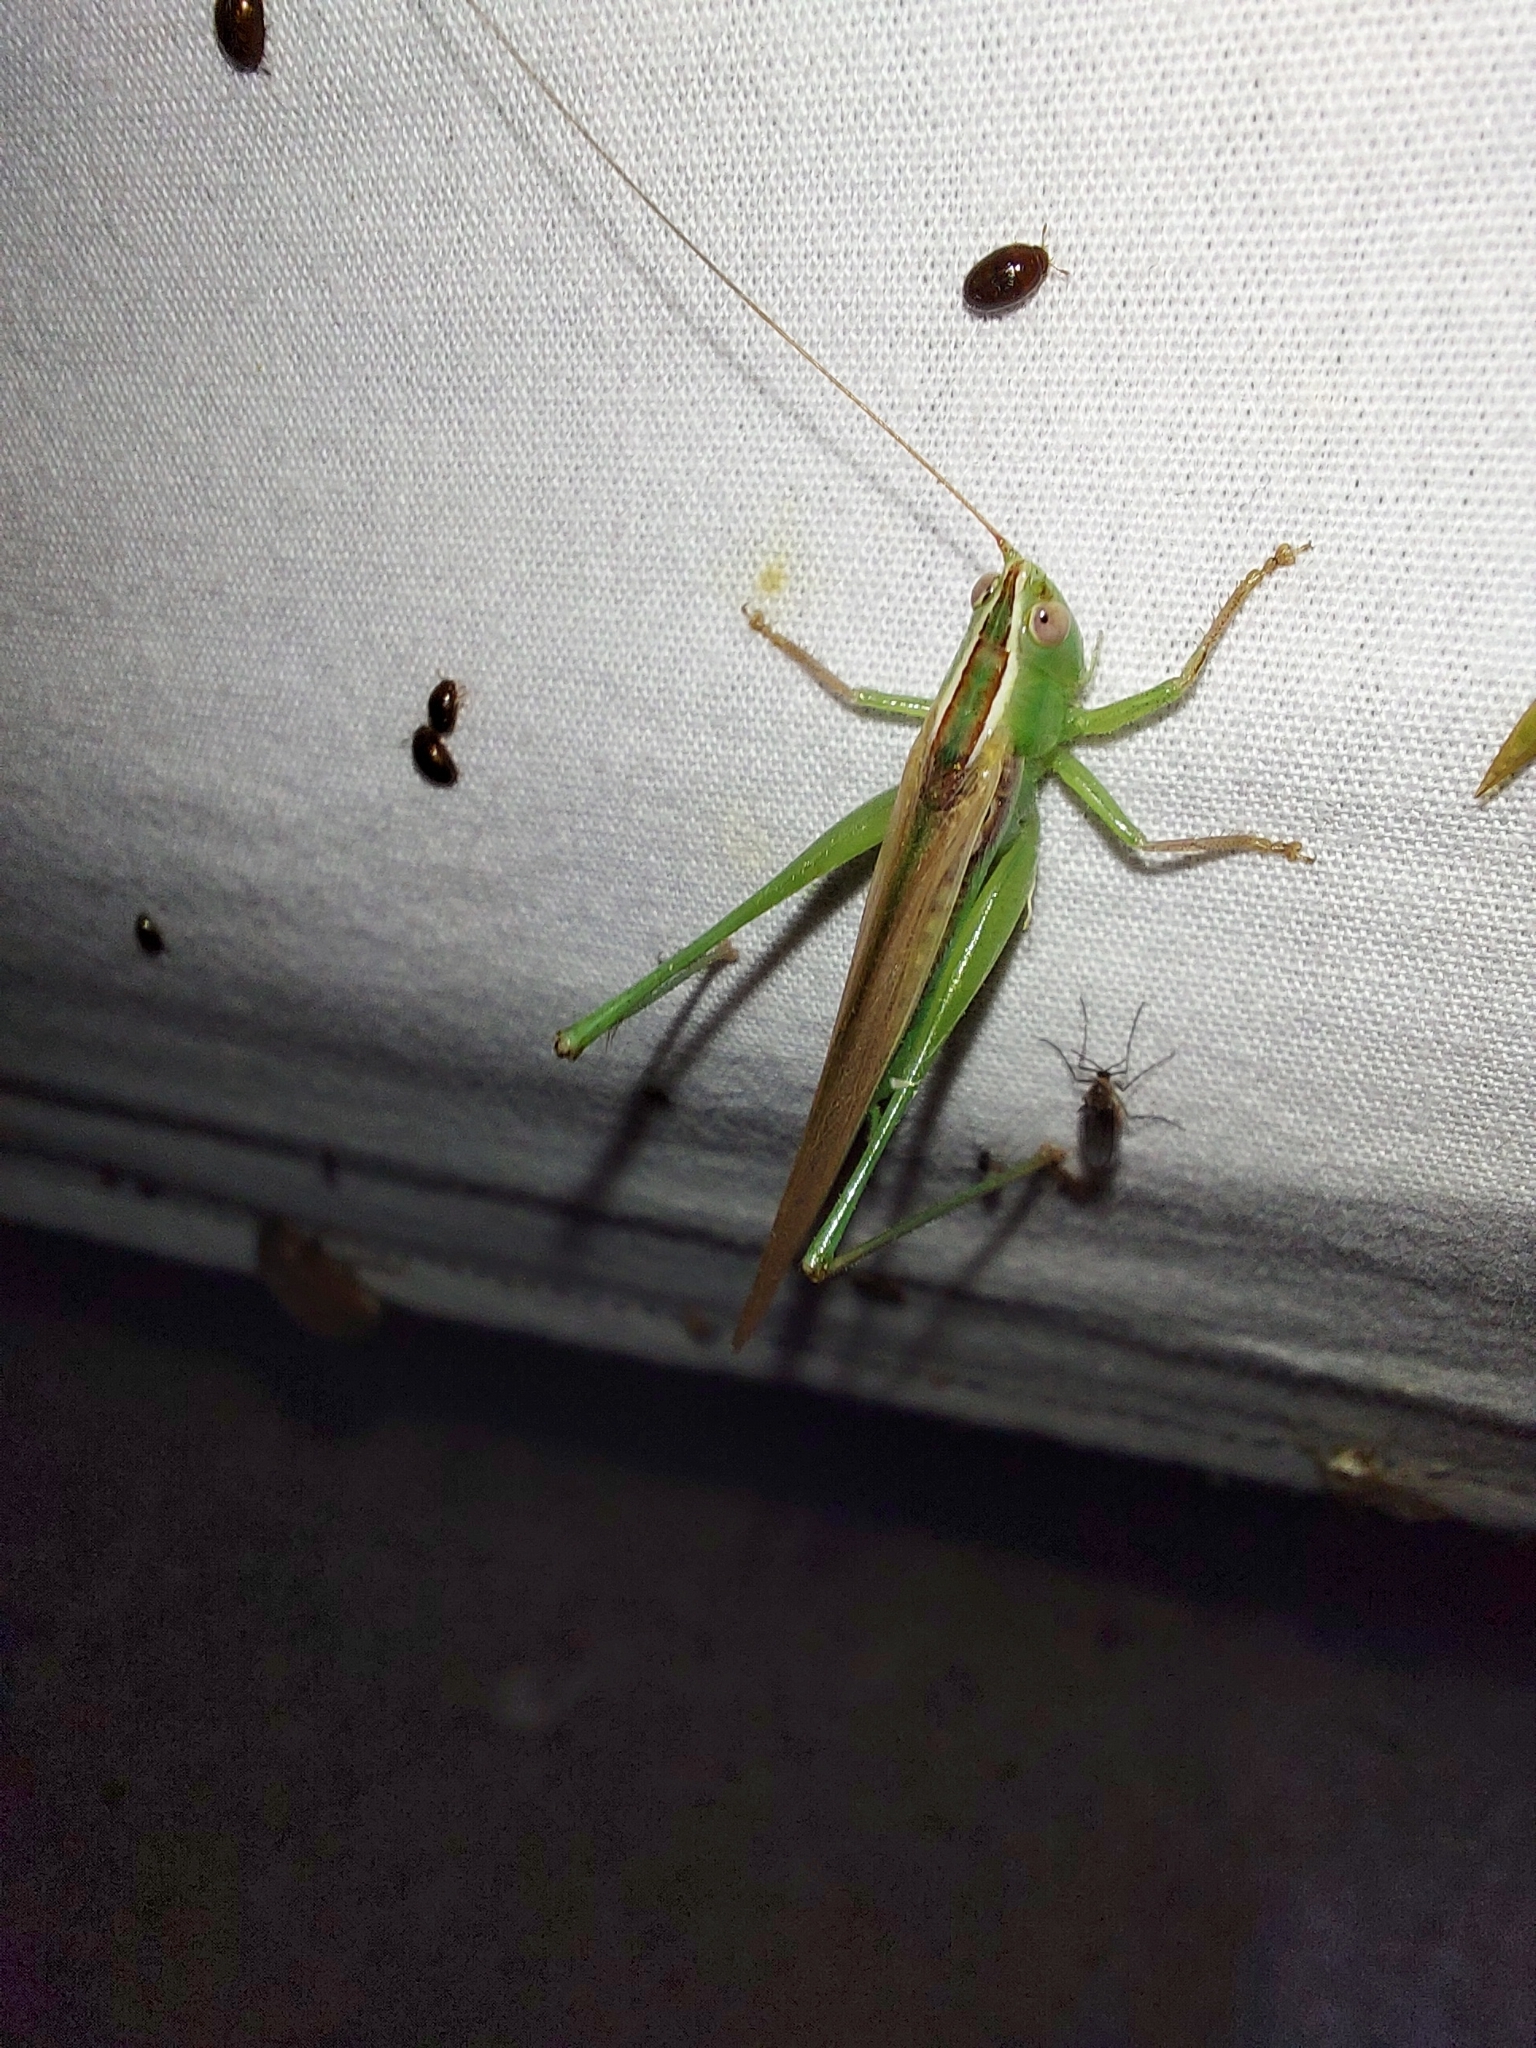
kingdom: Animalia
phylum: Arthropoda
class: Insecta
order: Orthoptera
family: Tettigoniidae
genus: Conocephalus
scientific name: Conocephalus upoluensis
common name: Upolu meadow katydid
